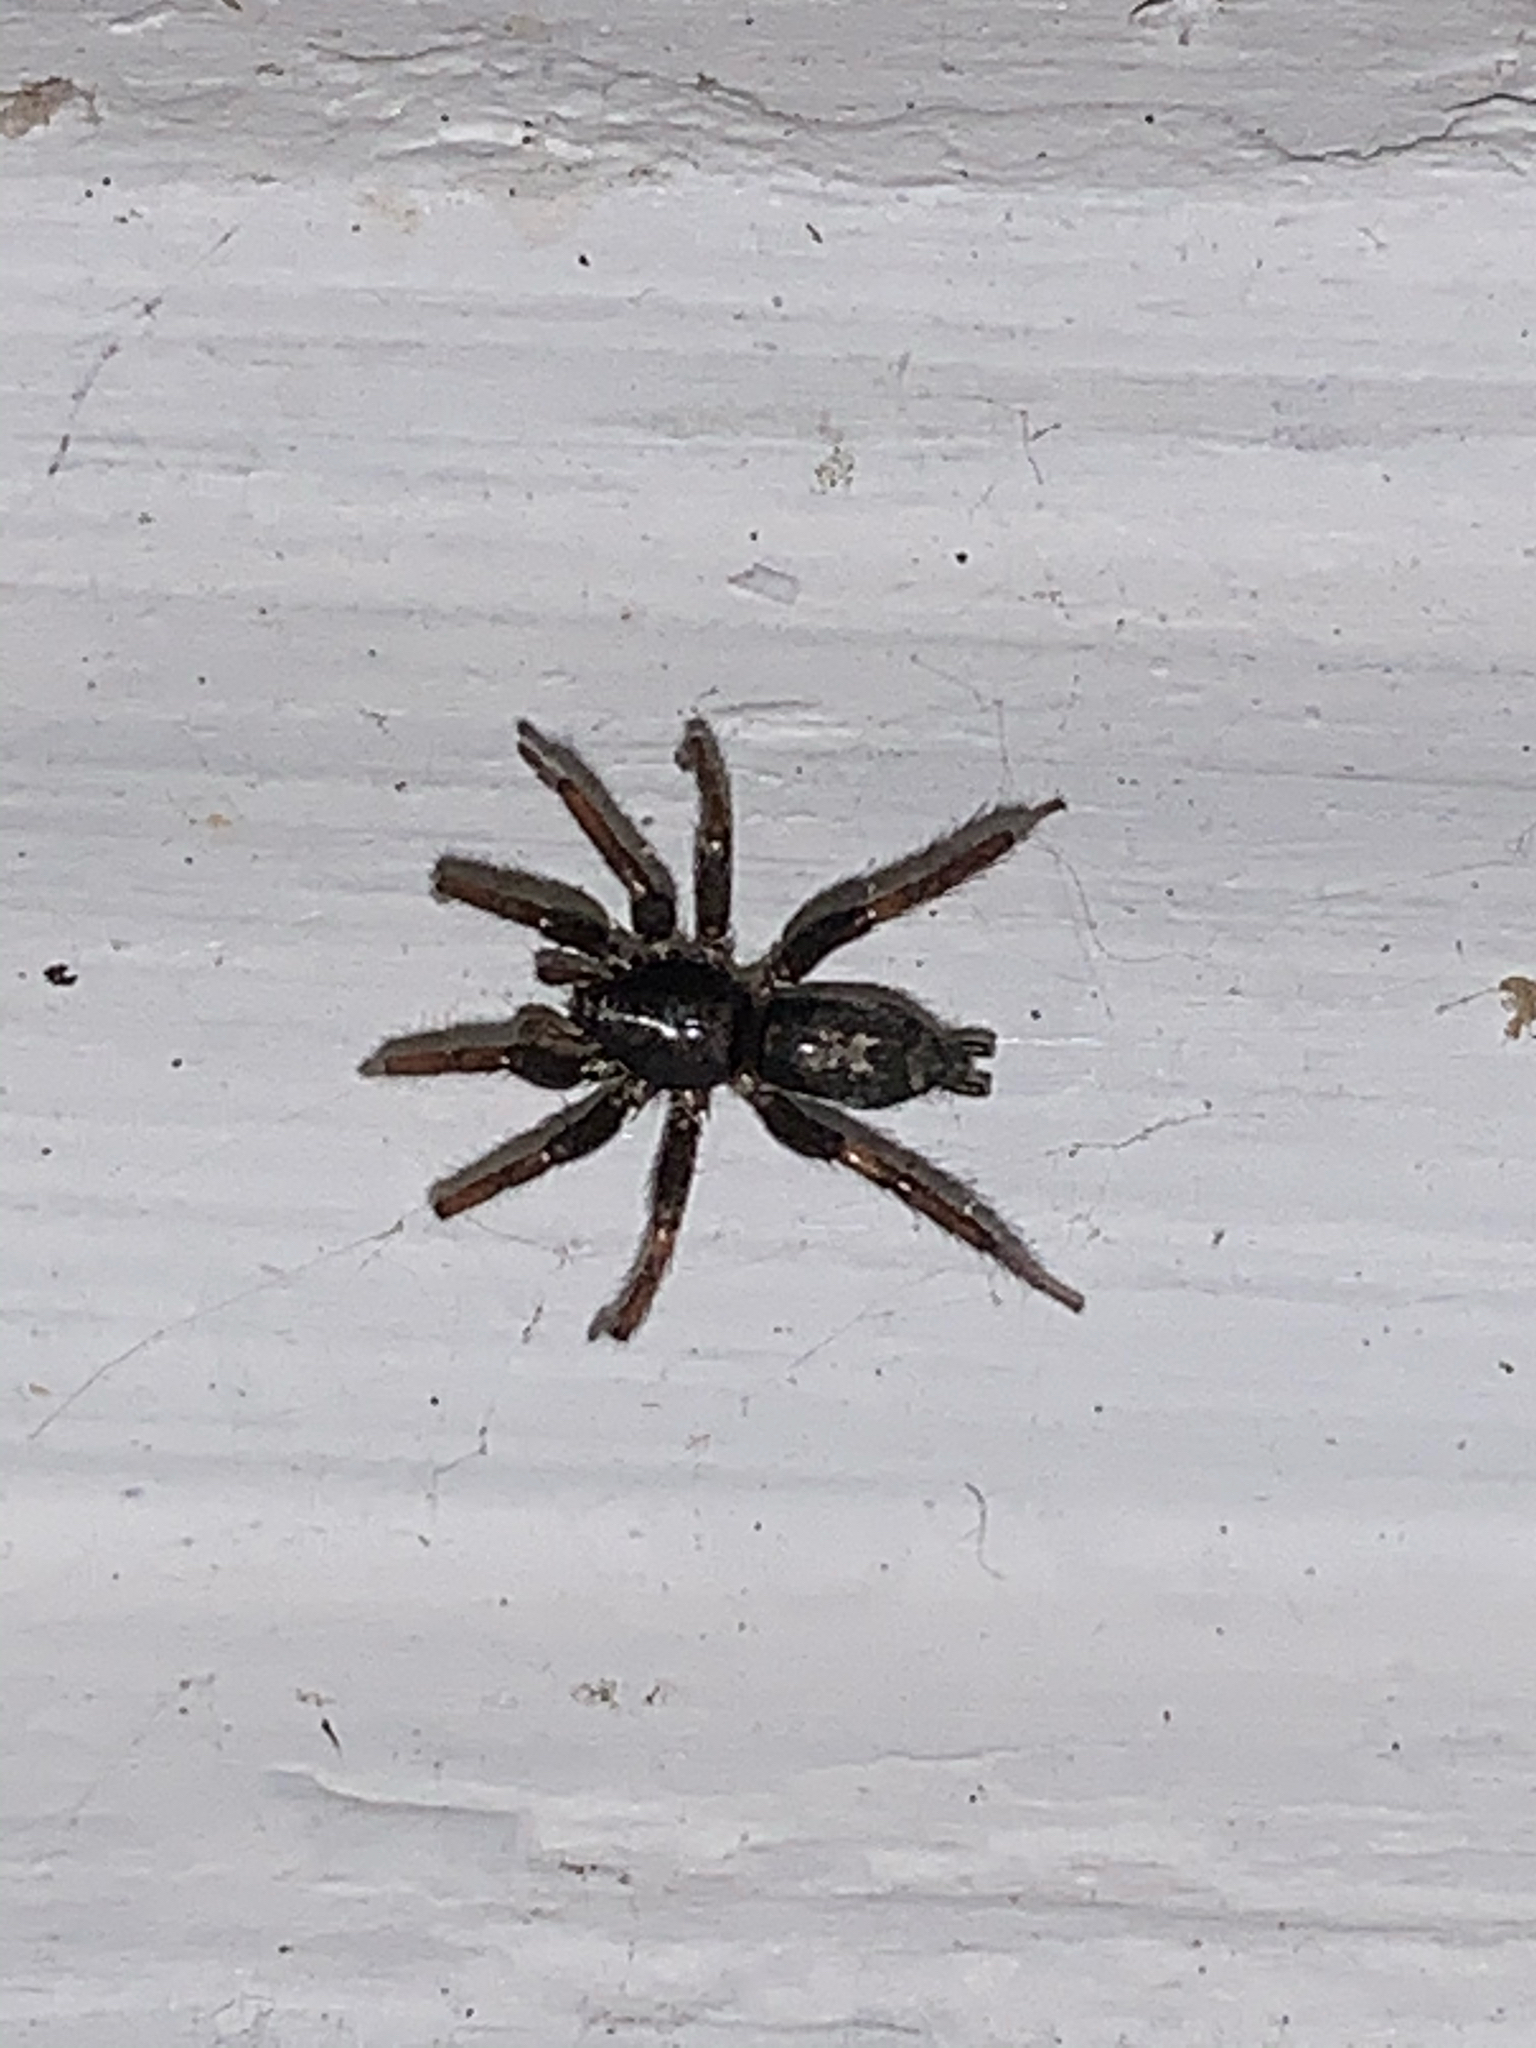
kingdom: Animalia
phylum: Arthropoda
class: Arachnida
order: Araneae
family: Gnaphosidae
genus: Herpyllus
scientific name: Herpyllus ecclesiasticus
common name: Eastern parson spider
